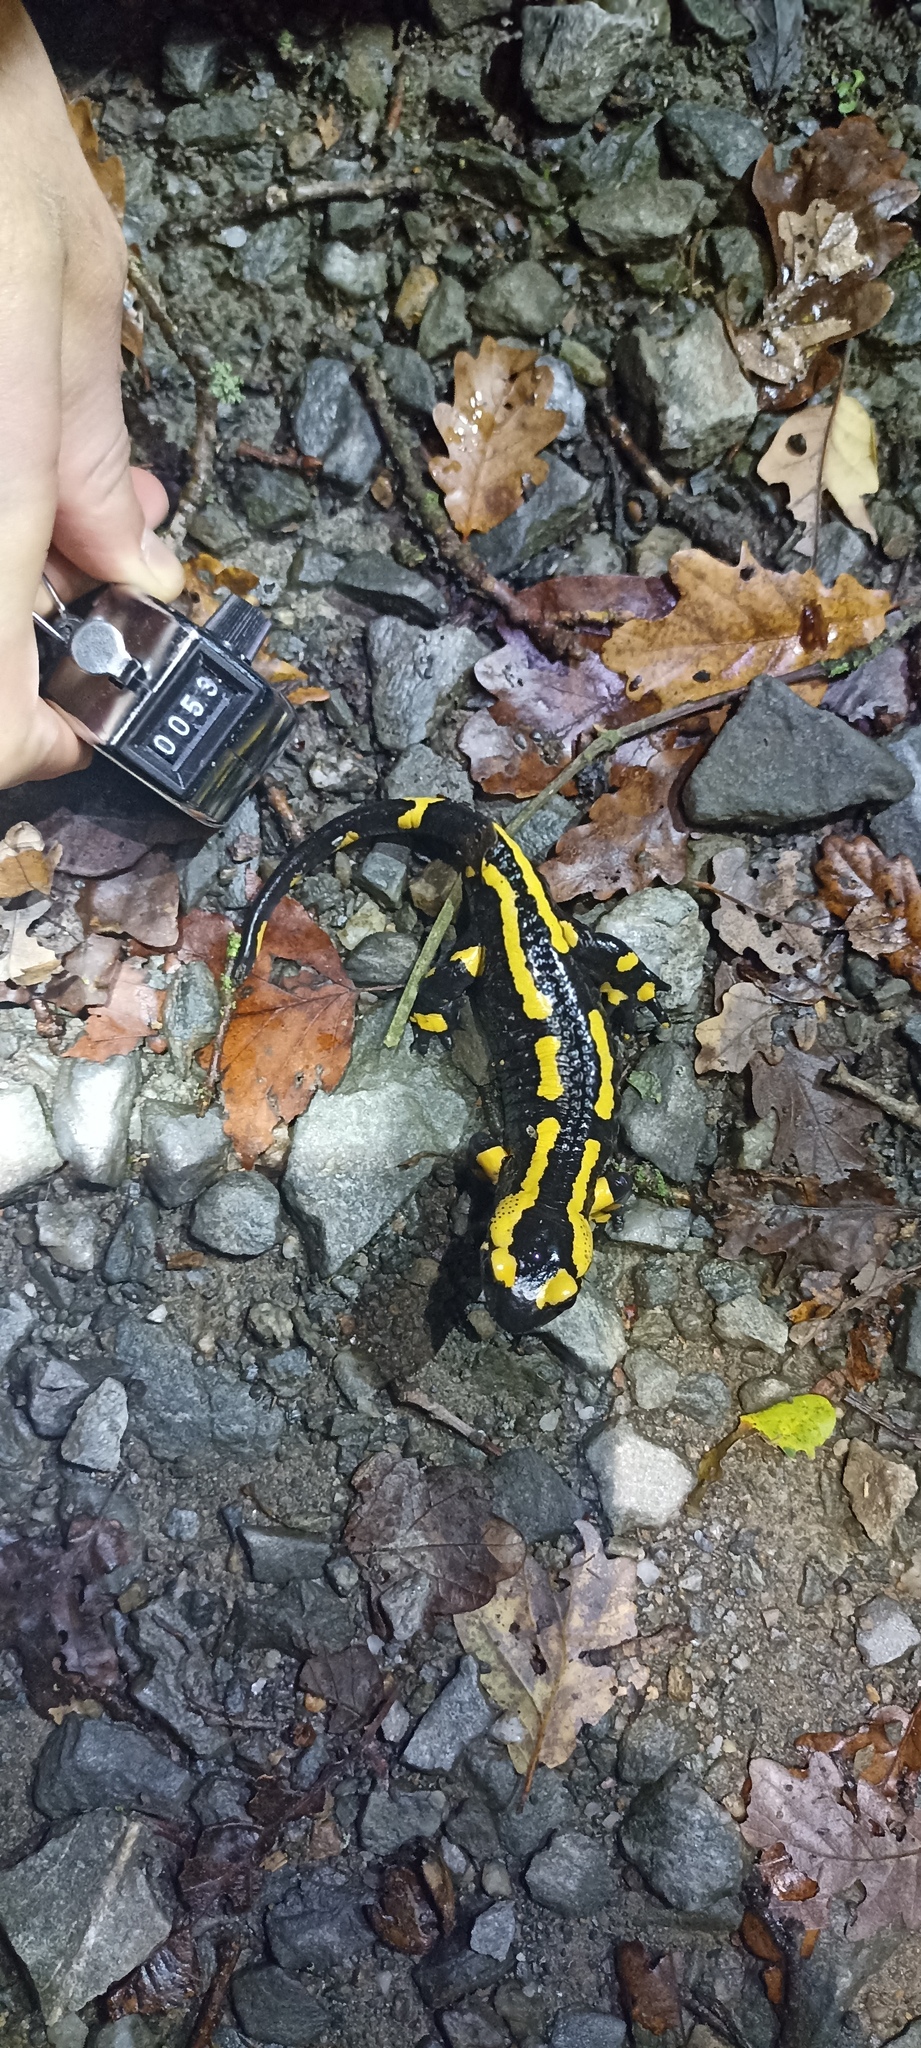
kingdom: Animalia
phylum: Chordata
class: Amphibia
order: Caudata
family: Salamandridae
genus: Salamandra
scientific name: Salamandra salamandra
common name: Fire salamander
